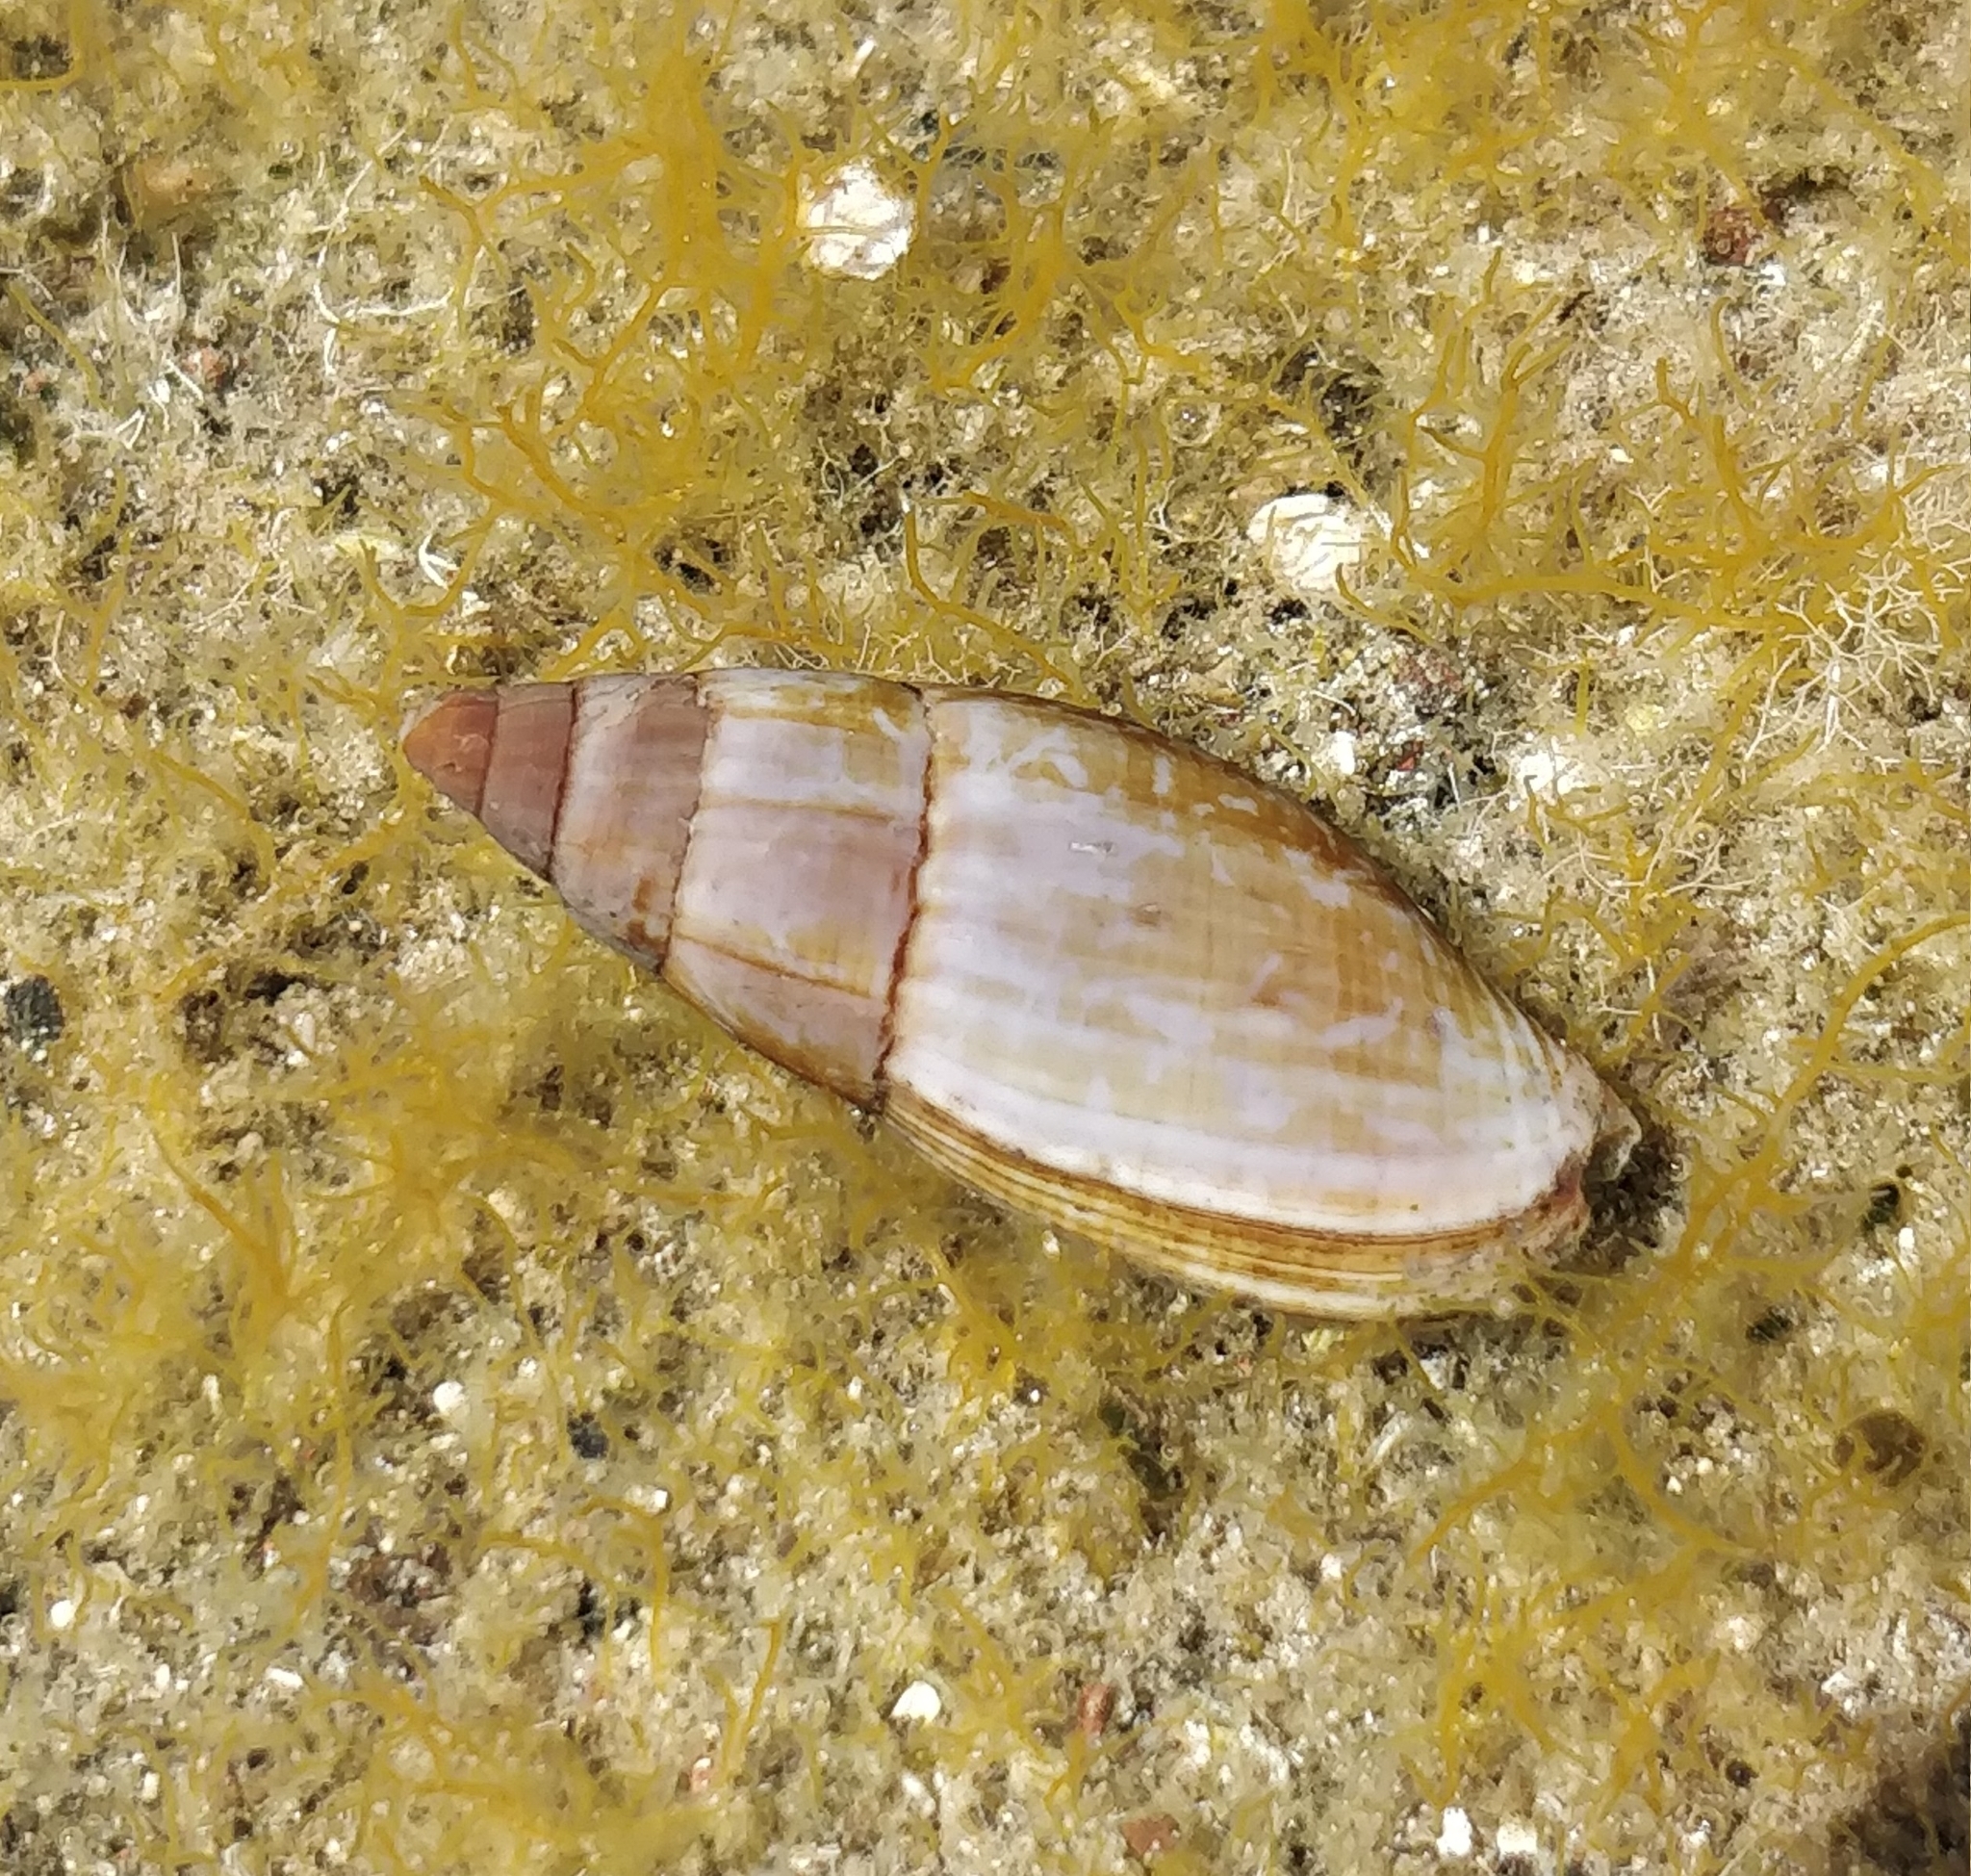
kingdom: Animalia
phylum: Mollusca
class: Gastropoda
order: Neogastropoda
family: Mitridae
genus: Isara
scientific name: Isara cornea
